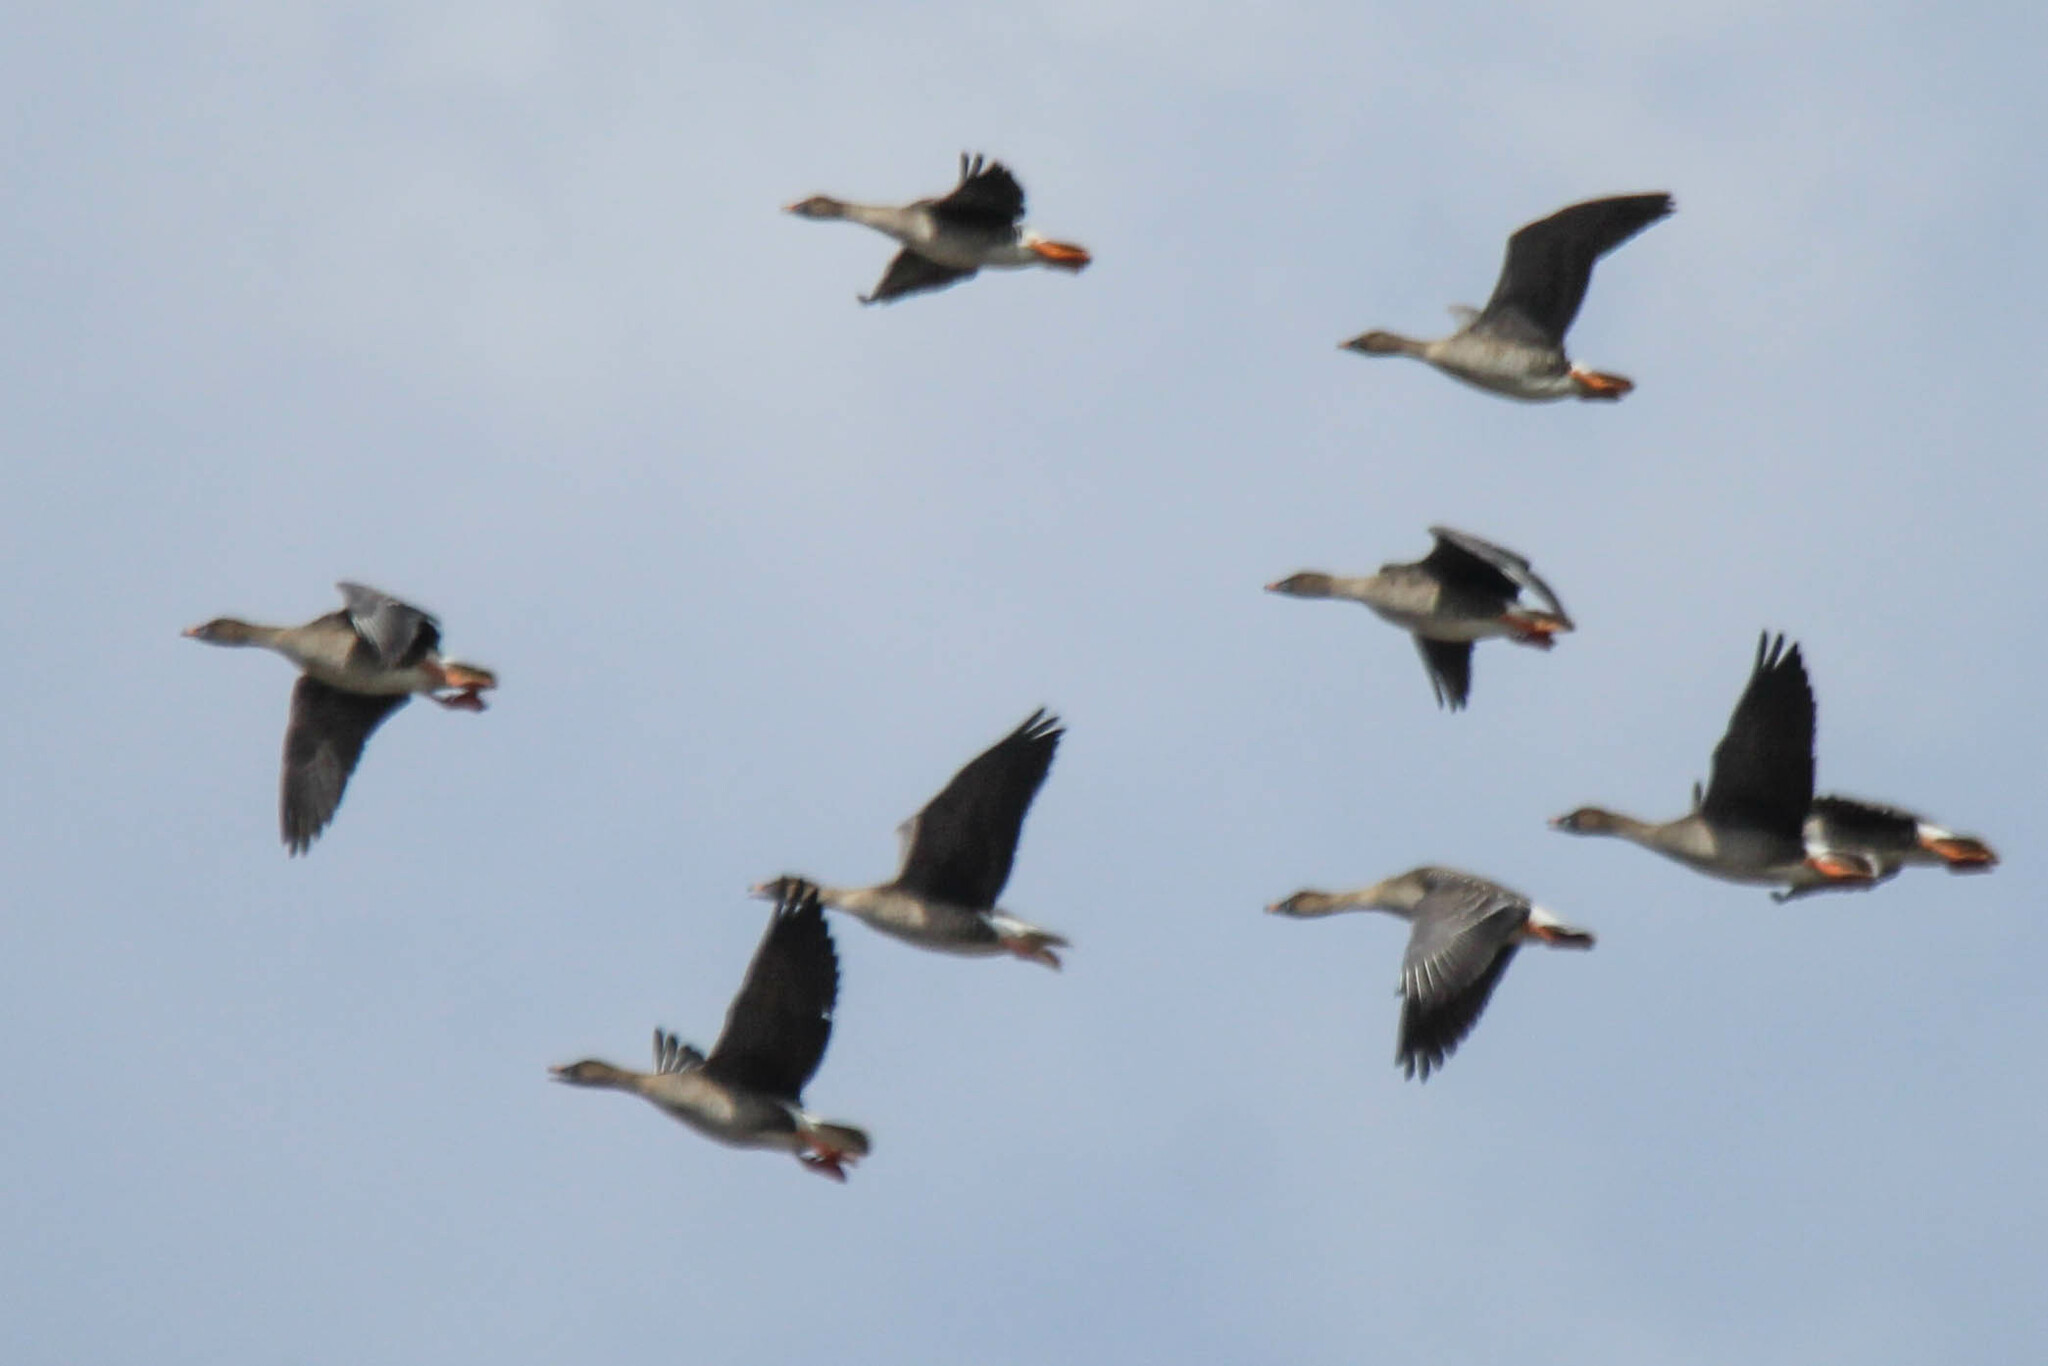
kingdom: Animalia
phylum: Chordata
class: Aves
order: Anseriformes
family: Anatidae
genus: Anser
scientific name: Anser serrirostris
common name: Tundra bean goose
